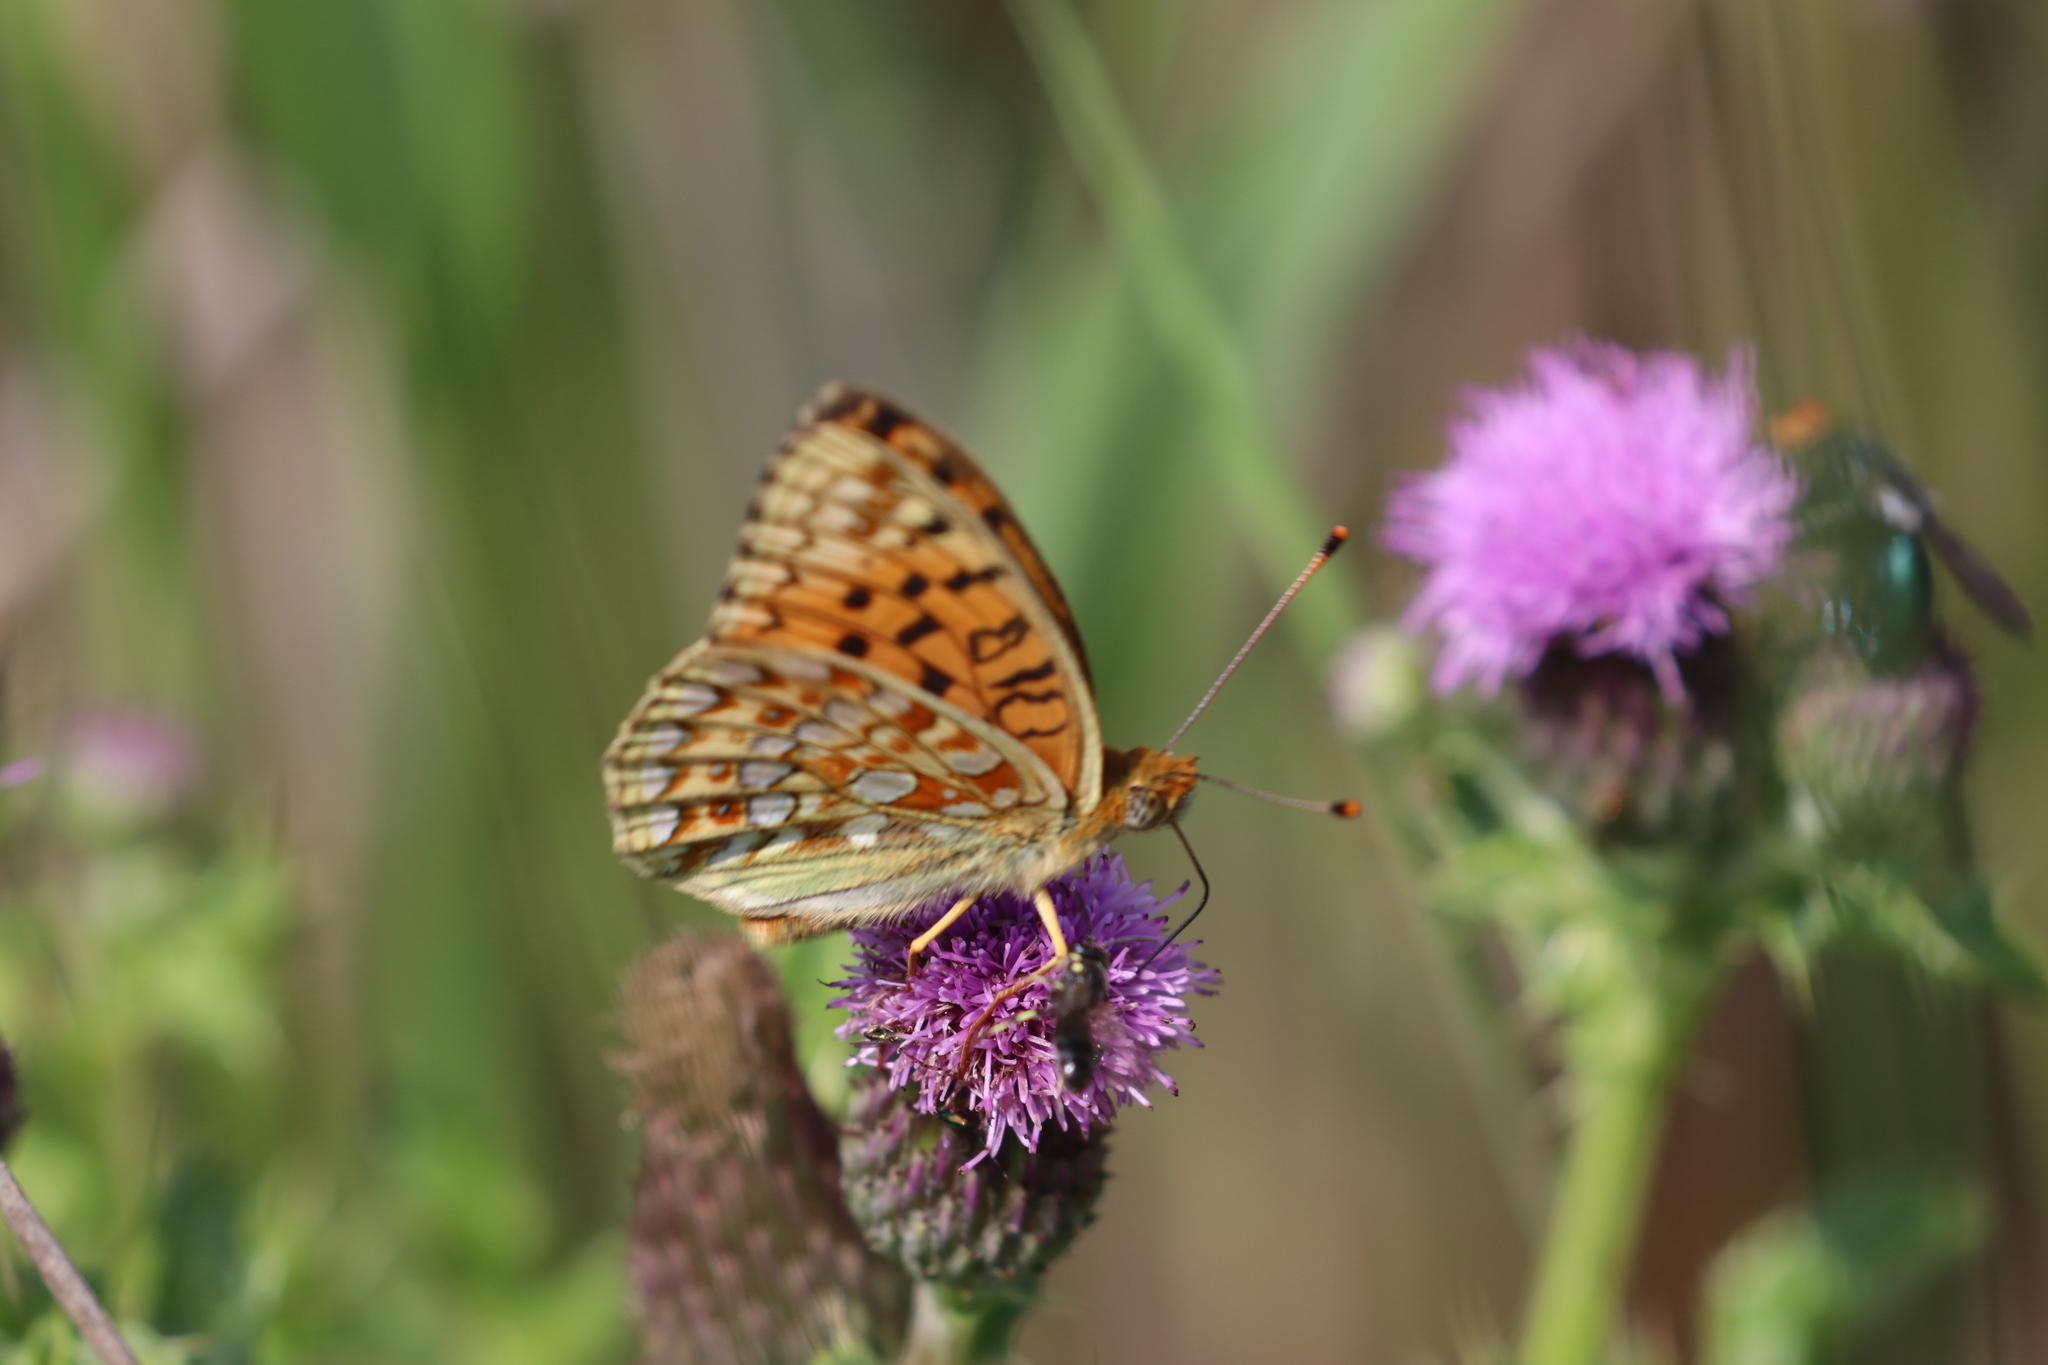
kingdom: Animalia
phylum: Arthropoda
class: Insecta
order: Lepidoptera
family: Nymphalidae
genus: Fabriciana
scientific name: Fabriciana niobe
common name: Niobe fritillary
